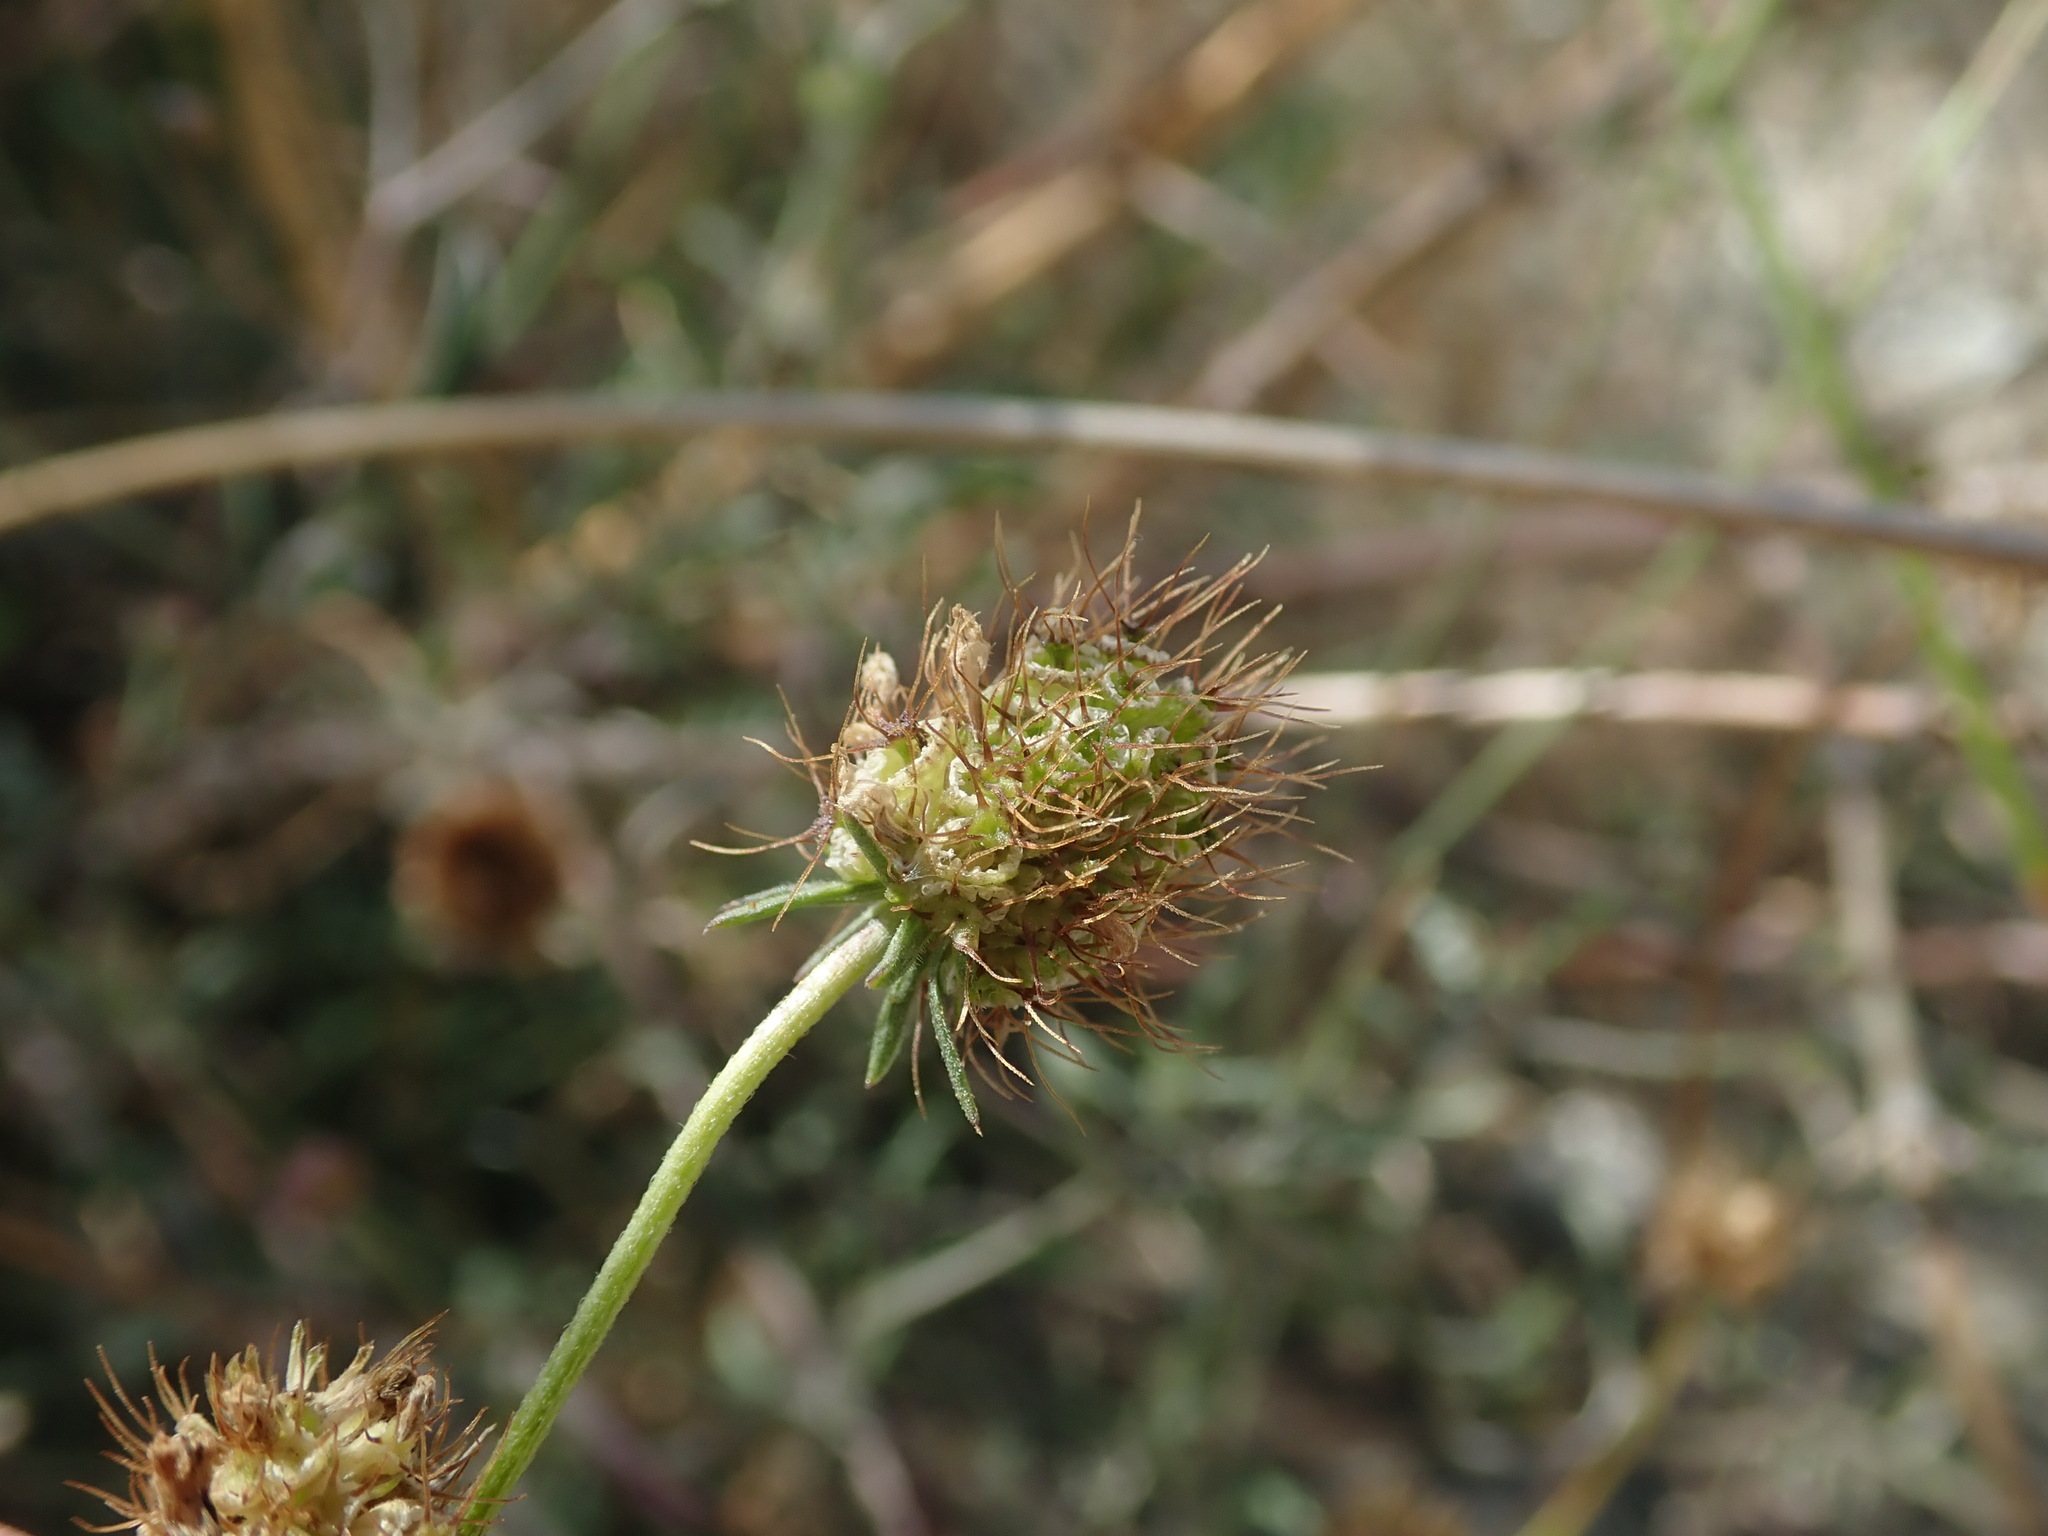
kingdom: Plantae
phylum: Tracheophyta
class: Magnoliopsida
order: Dipsacales
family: Caprifoliaceae
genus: Sixalix
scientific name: Sixalix atropurpurea
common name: Sweet scabious
